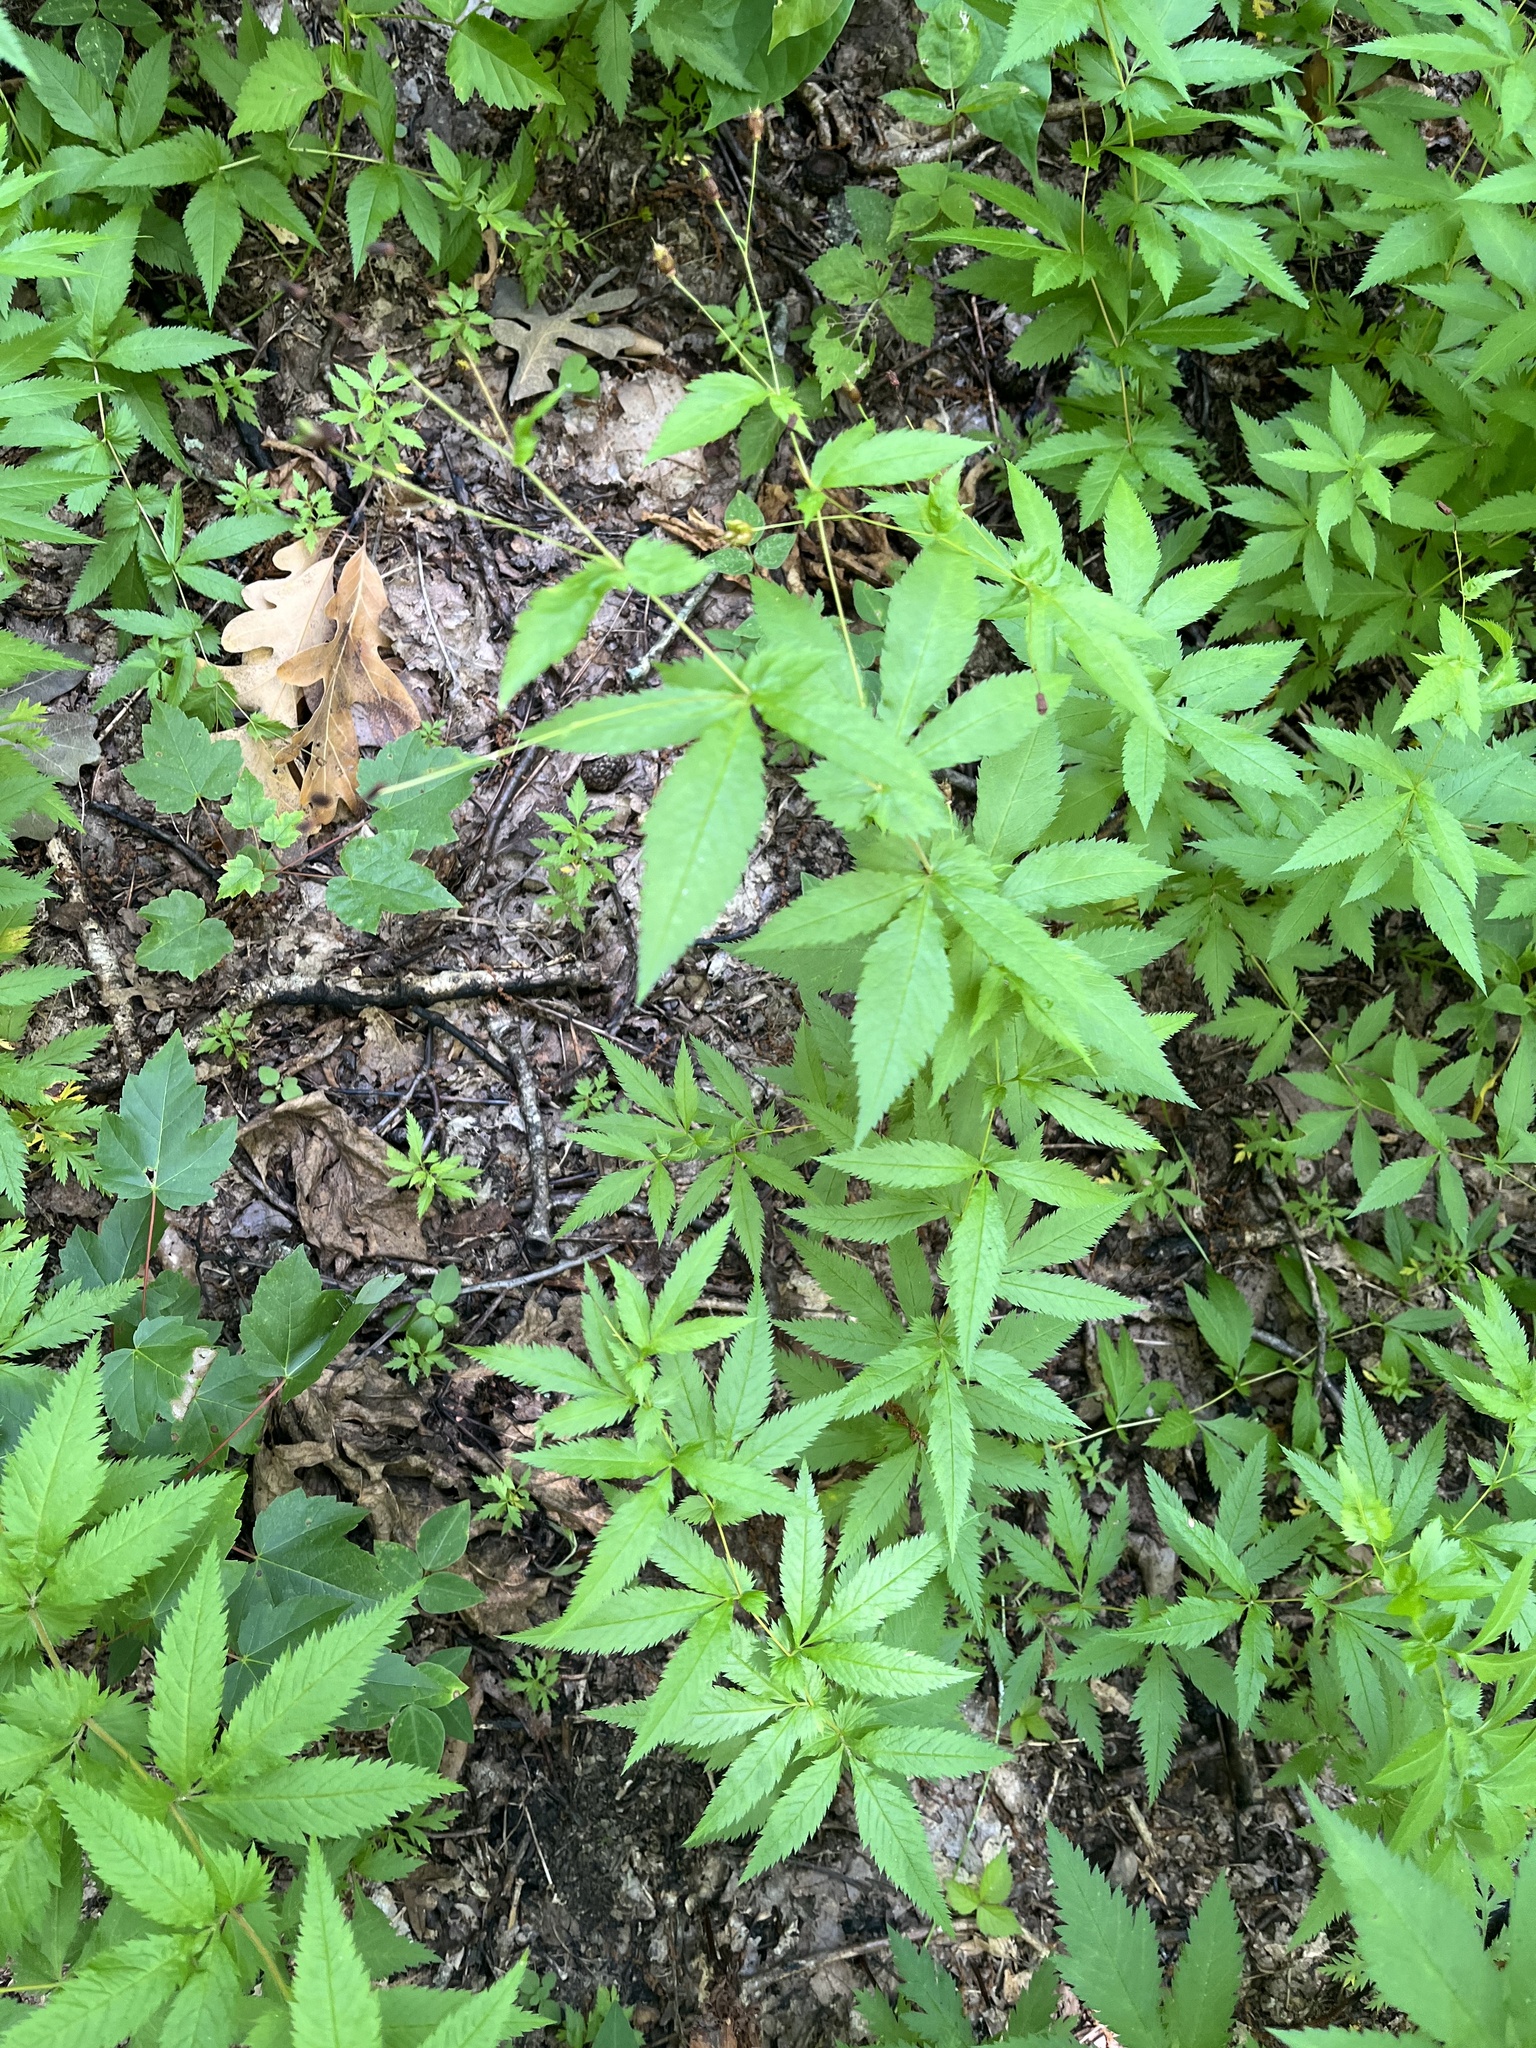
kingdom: Plantae
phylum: Tracheophyta
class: Magnoliopsida
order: Rosales
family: Rosaceae
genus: Gillenia
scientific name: Gillenia stipulata
